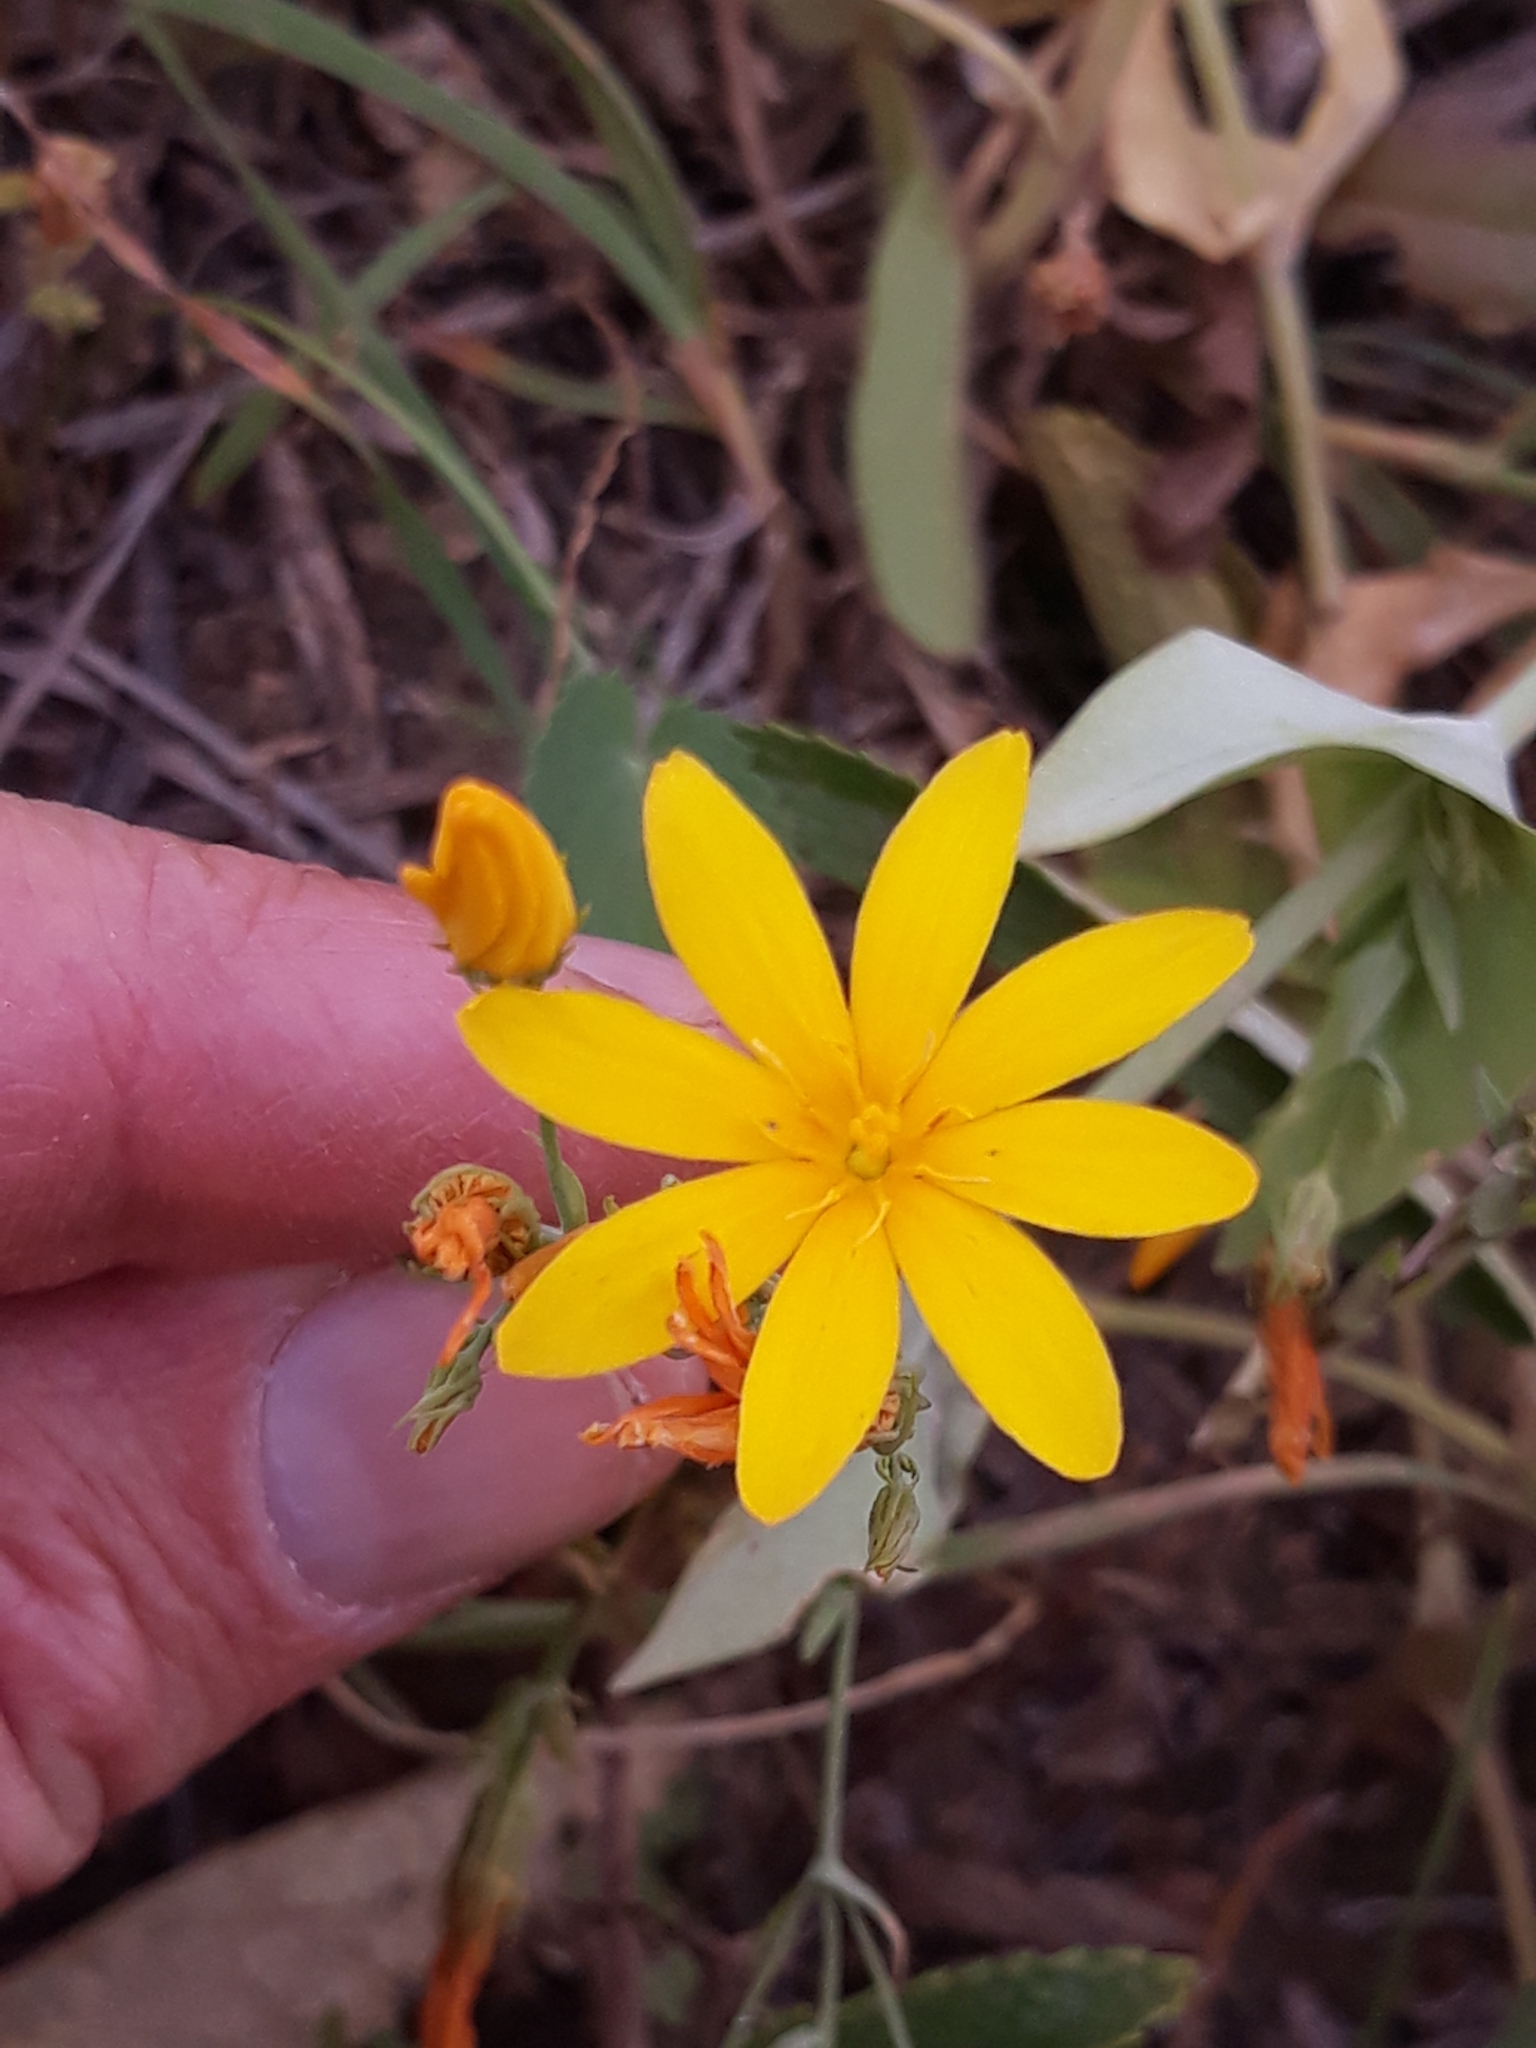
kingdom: Plantae
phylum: Tracheophyta
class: Magnoliopsida
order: Gentianales
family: Gentianaceae
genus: Blackstonia
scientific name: Blackstonia grandiflora
